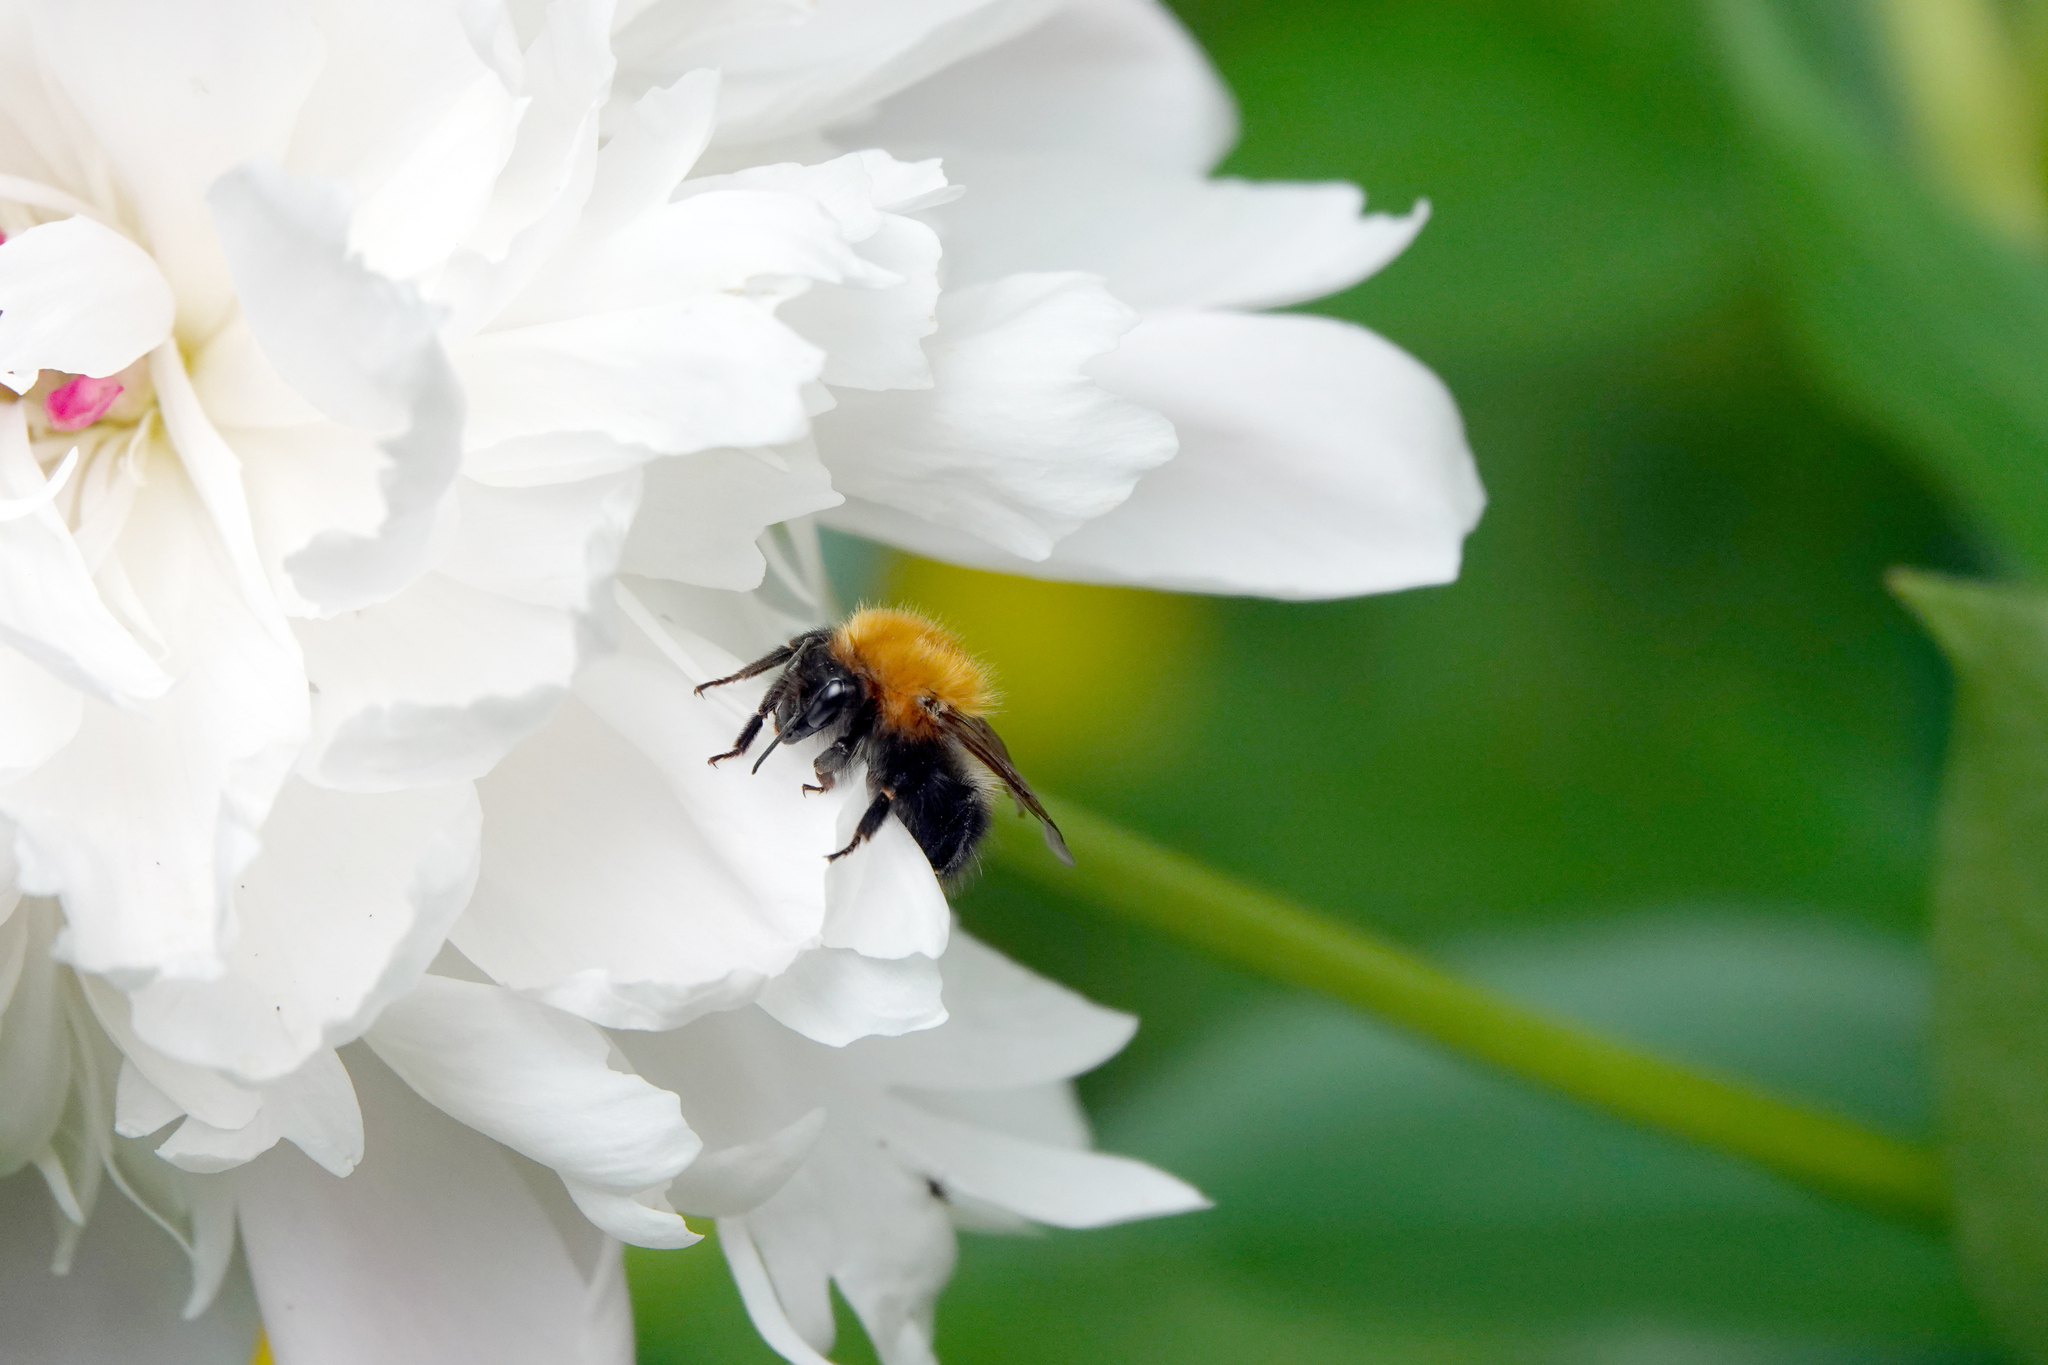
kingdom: Animalia
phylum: Arthropoda
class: Insecta
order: Hymenoptera
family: Apidae
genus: Bombus
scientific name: Bombus
